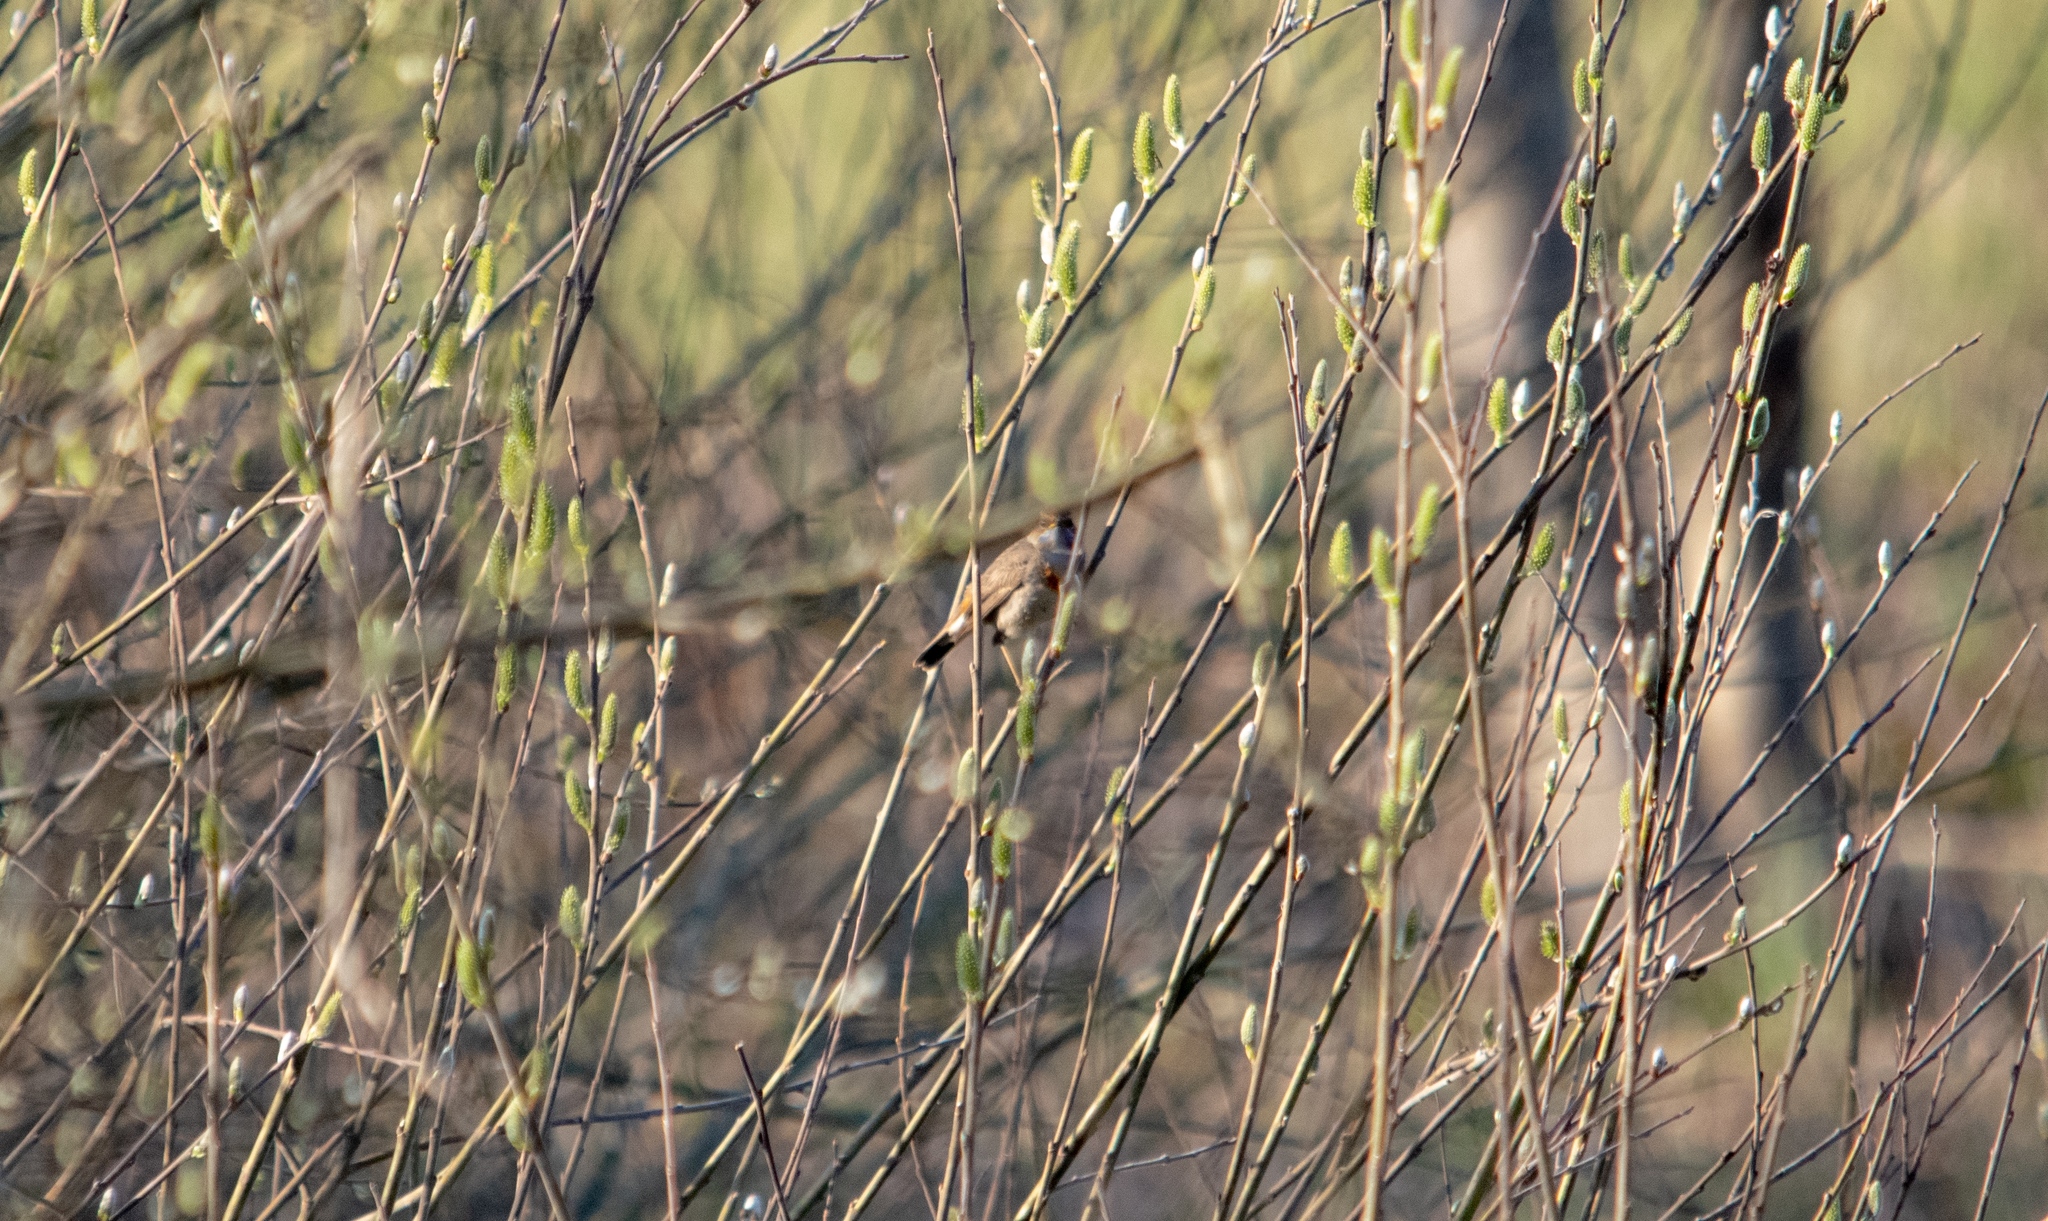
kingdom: Animalia
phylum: Chordata
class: Aves
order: Passeriformes
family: Muscicapidae
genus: Luscinia
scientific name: Luscinia svecica
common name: Bluethroat
